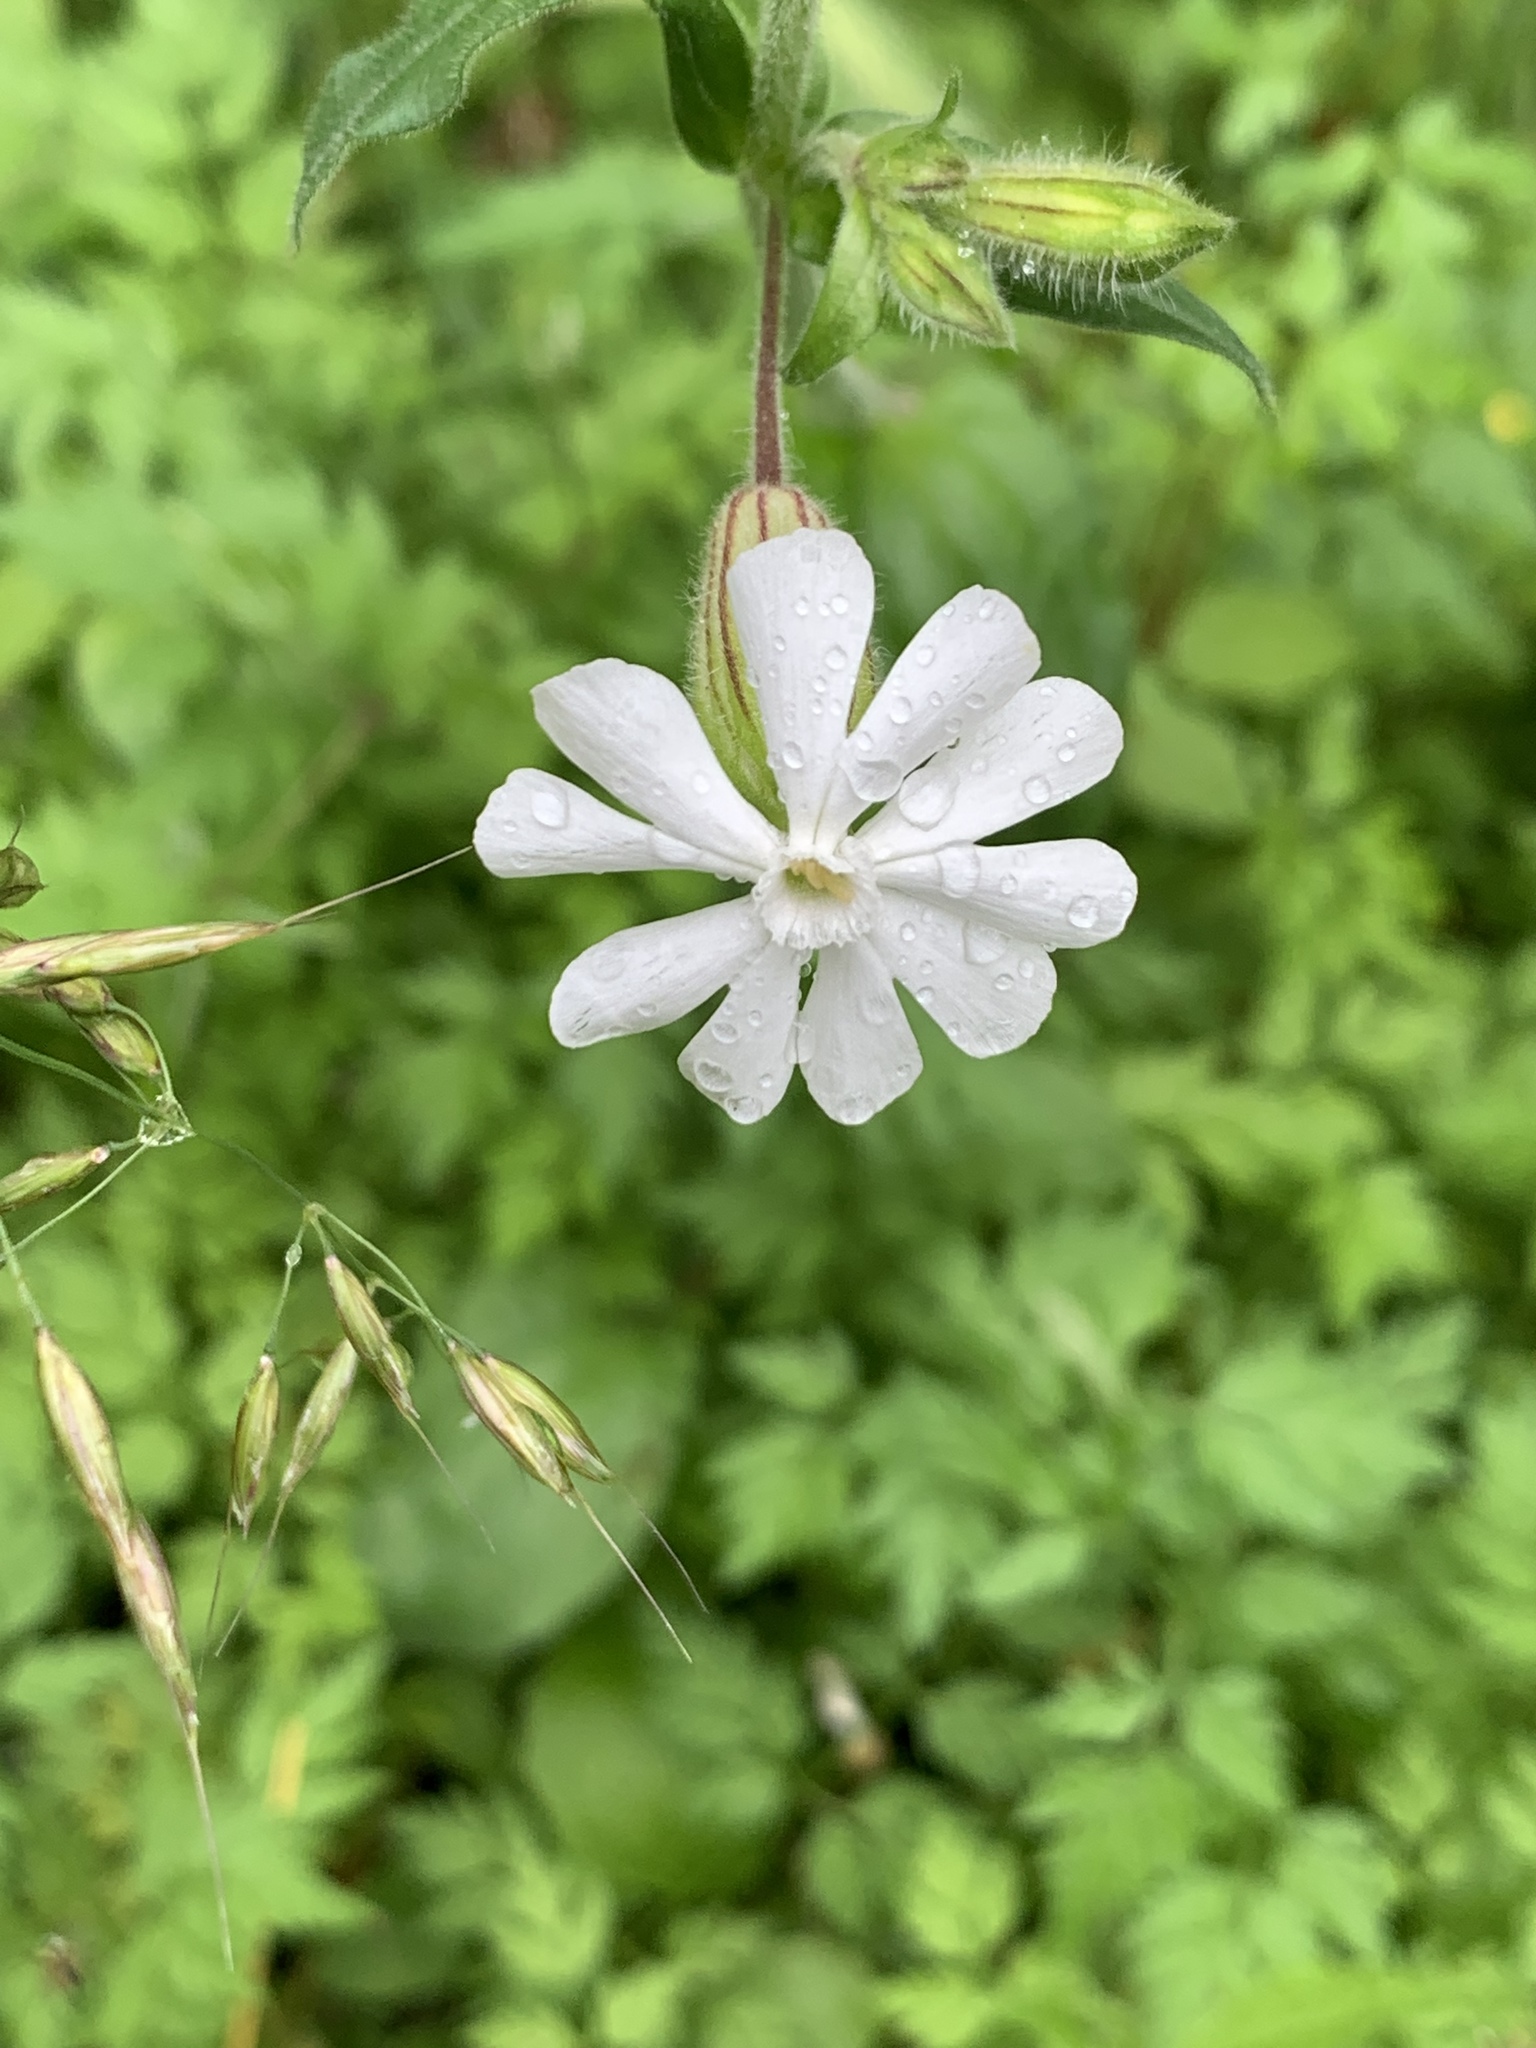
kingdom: Plantae
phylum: Tracheophyta
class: Magnoliopsida
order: Caryophyllales
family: Caryophyllaceae
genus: Silene
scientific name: Silene latifolia
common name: White campion
